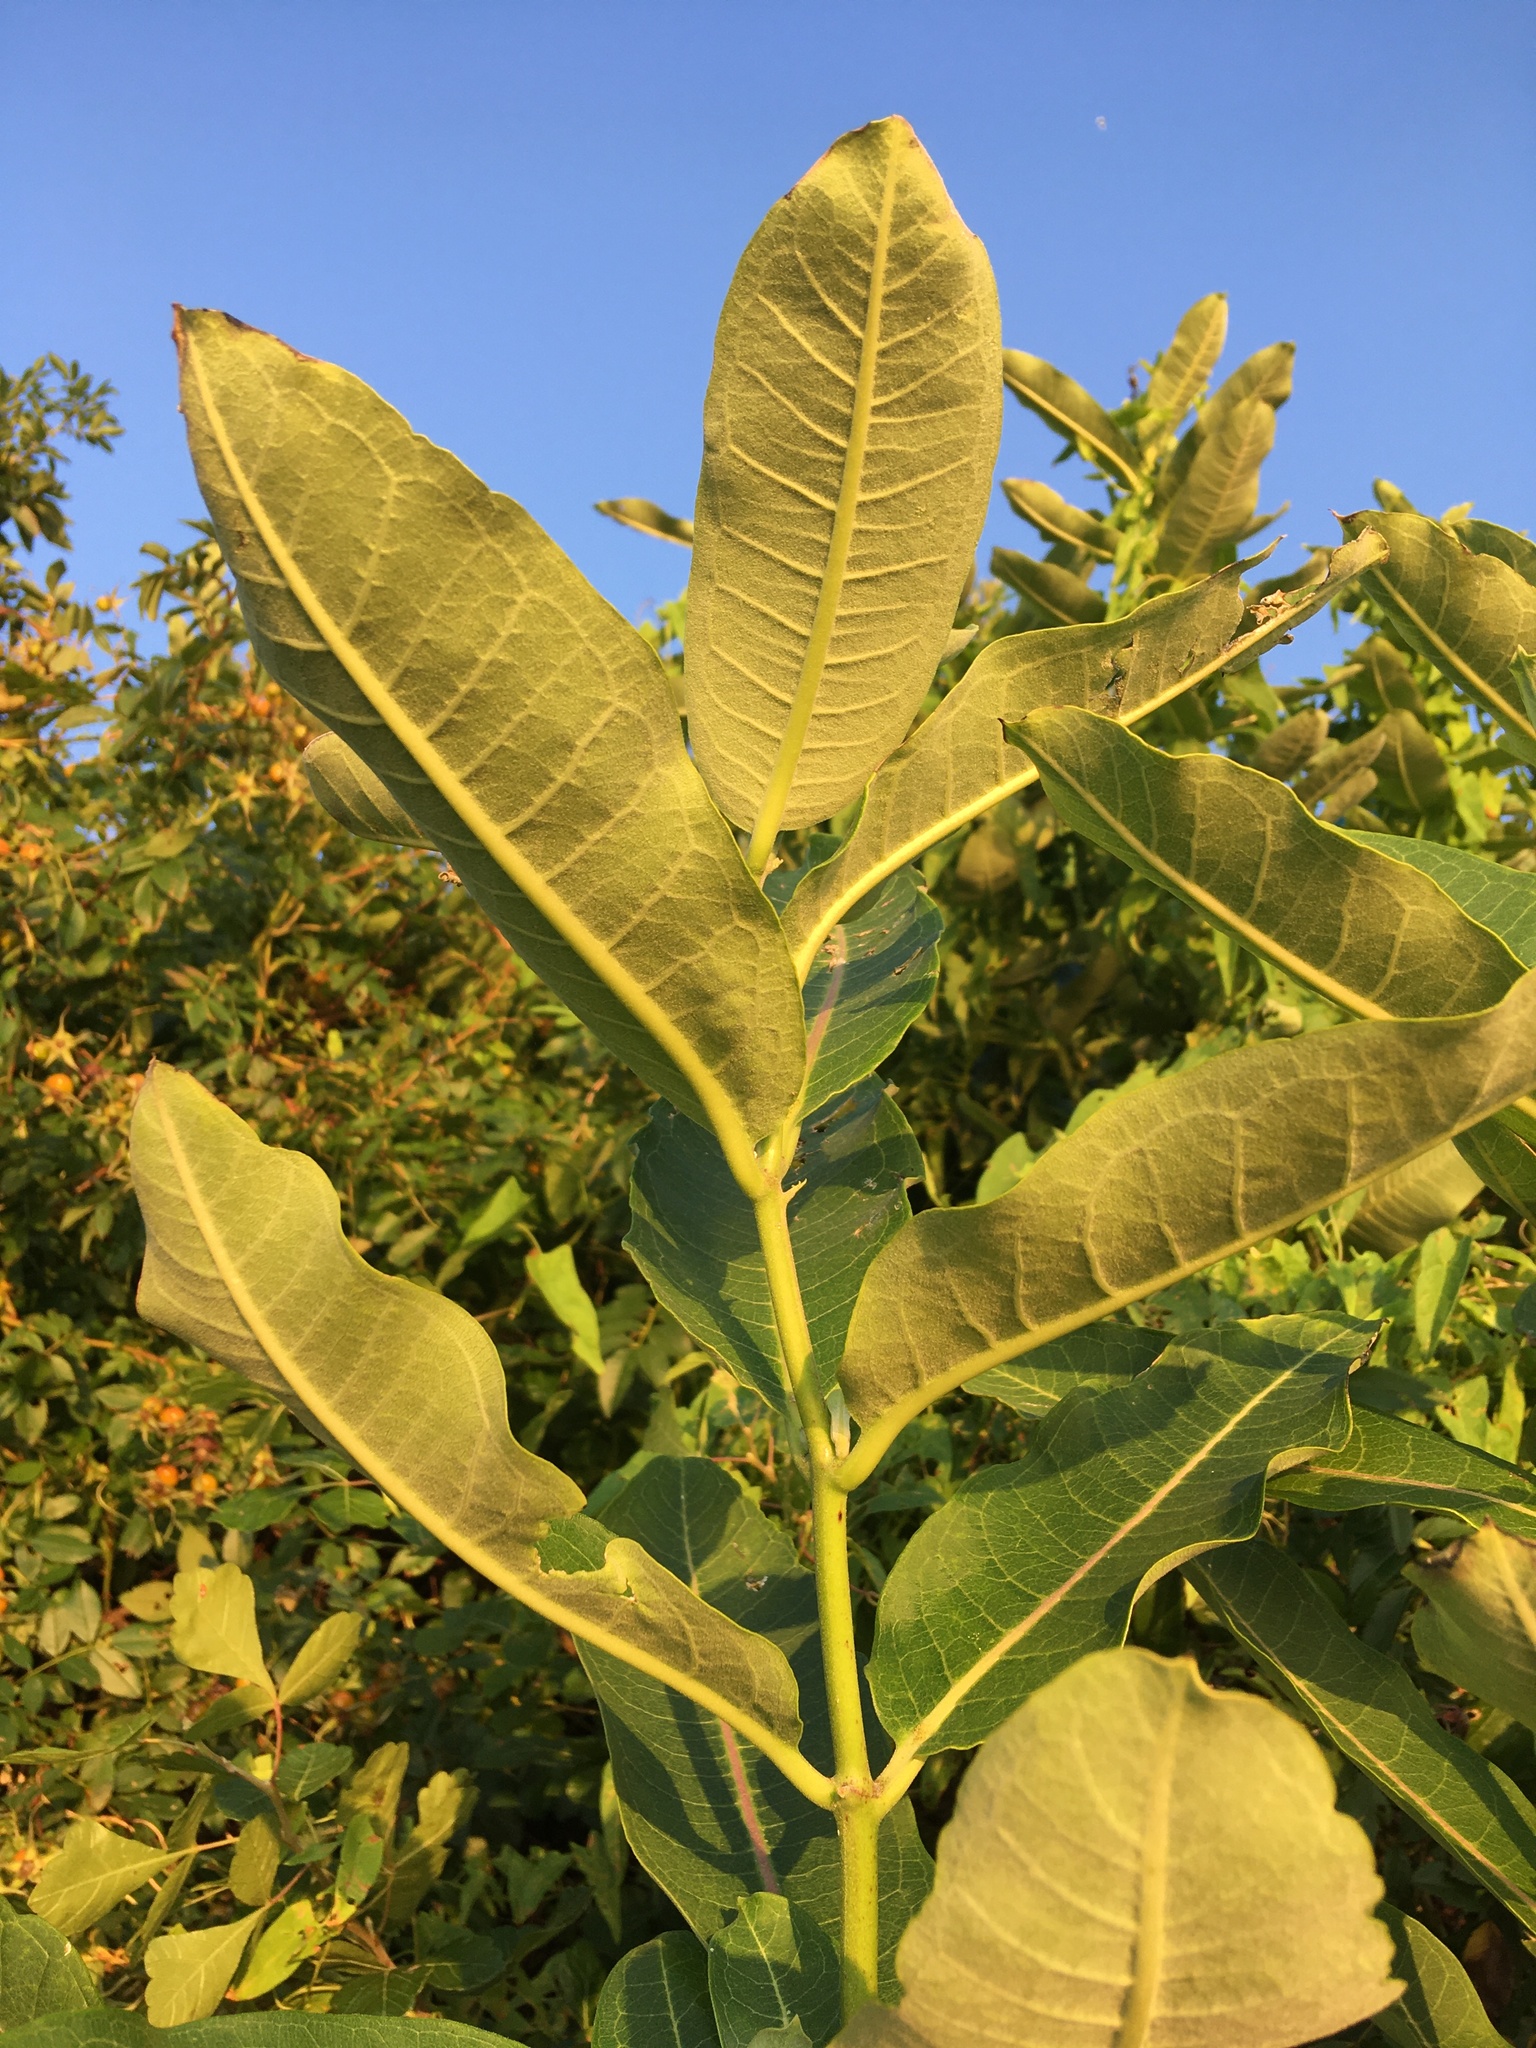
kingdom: Plantae
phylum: Tracheophyta
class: Magnoliopsida
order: Gentianales
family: Apocynaceae
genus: Asclepias
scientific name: Asclepias syriaca
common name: Common milkweed
